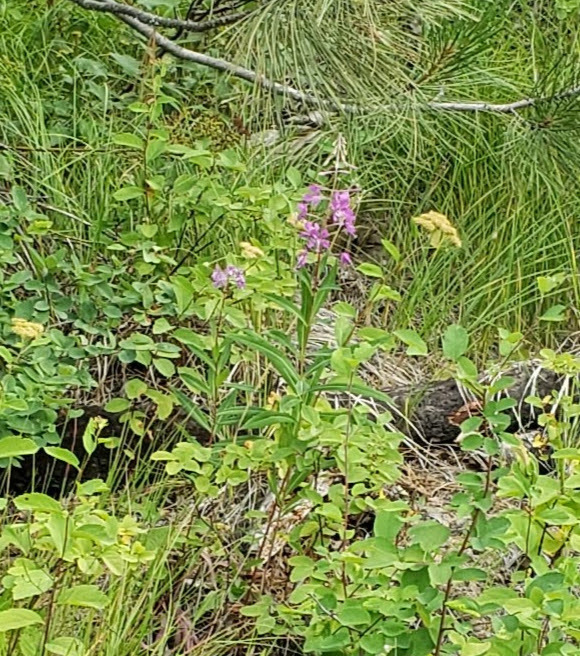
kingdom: Plantae
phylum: Tracheophyta
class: Magnoliopsida
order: Myrtales
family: Onagraceae
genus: Chamaenerion
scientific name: Chamaenerion angustifolium
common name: Fireweed
